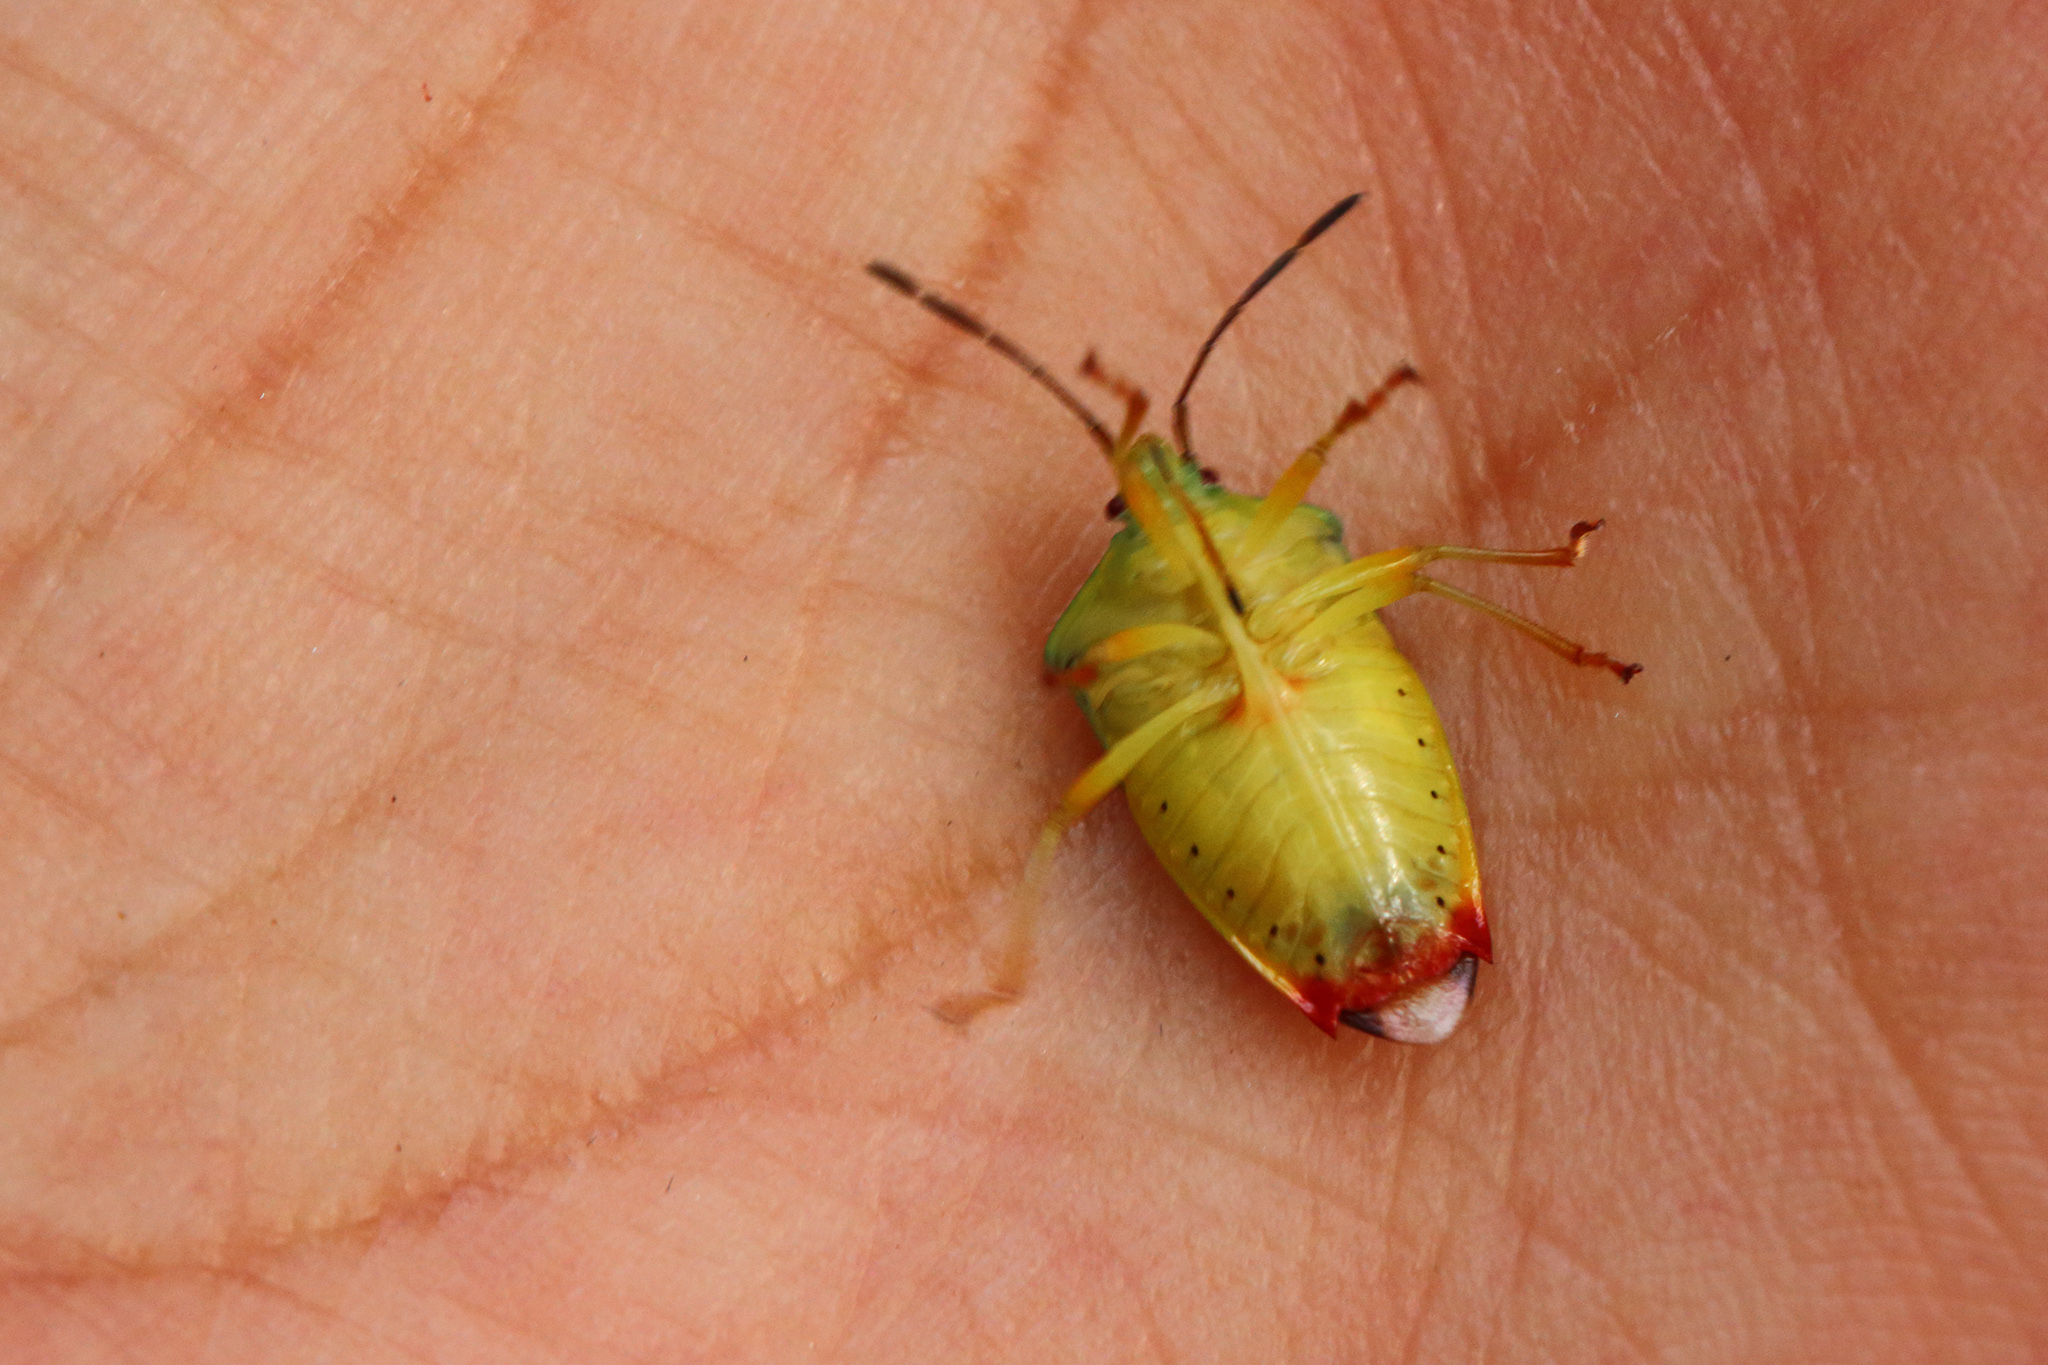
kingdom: Animalia
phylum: Arthropoda
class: Insecta
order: Hemiptera
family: Acanthosomatidae
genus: Elasmostethus
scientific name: Elasmostethus interstinctus
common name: Birch shieldbug
